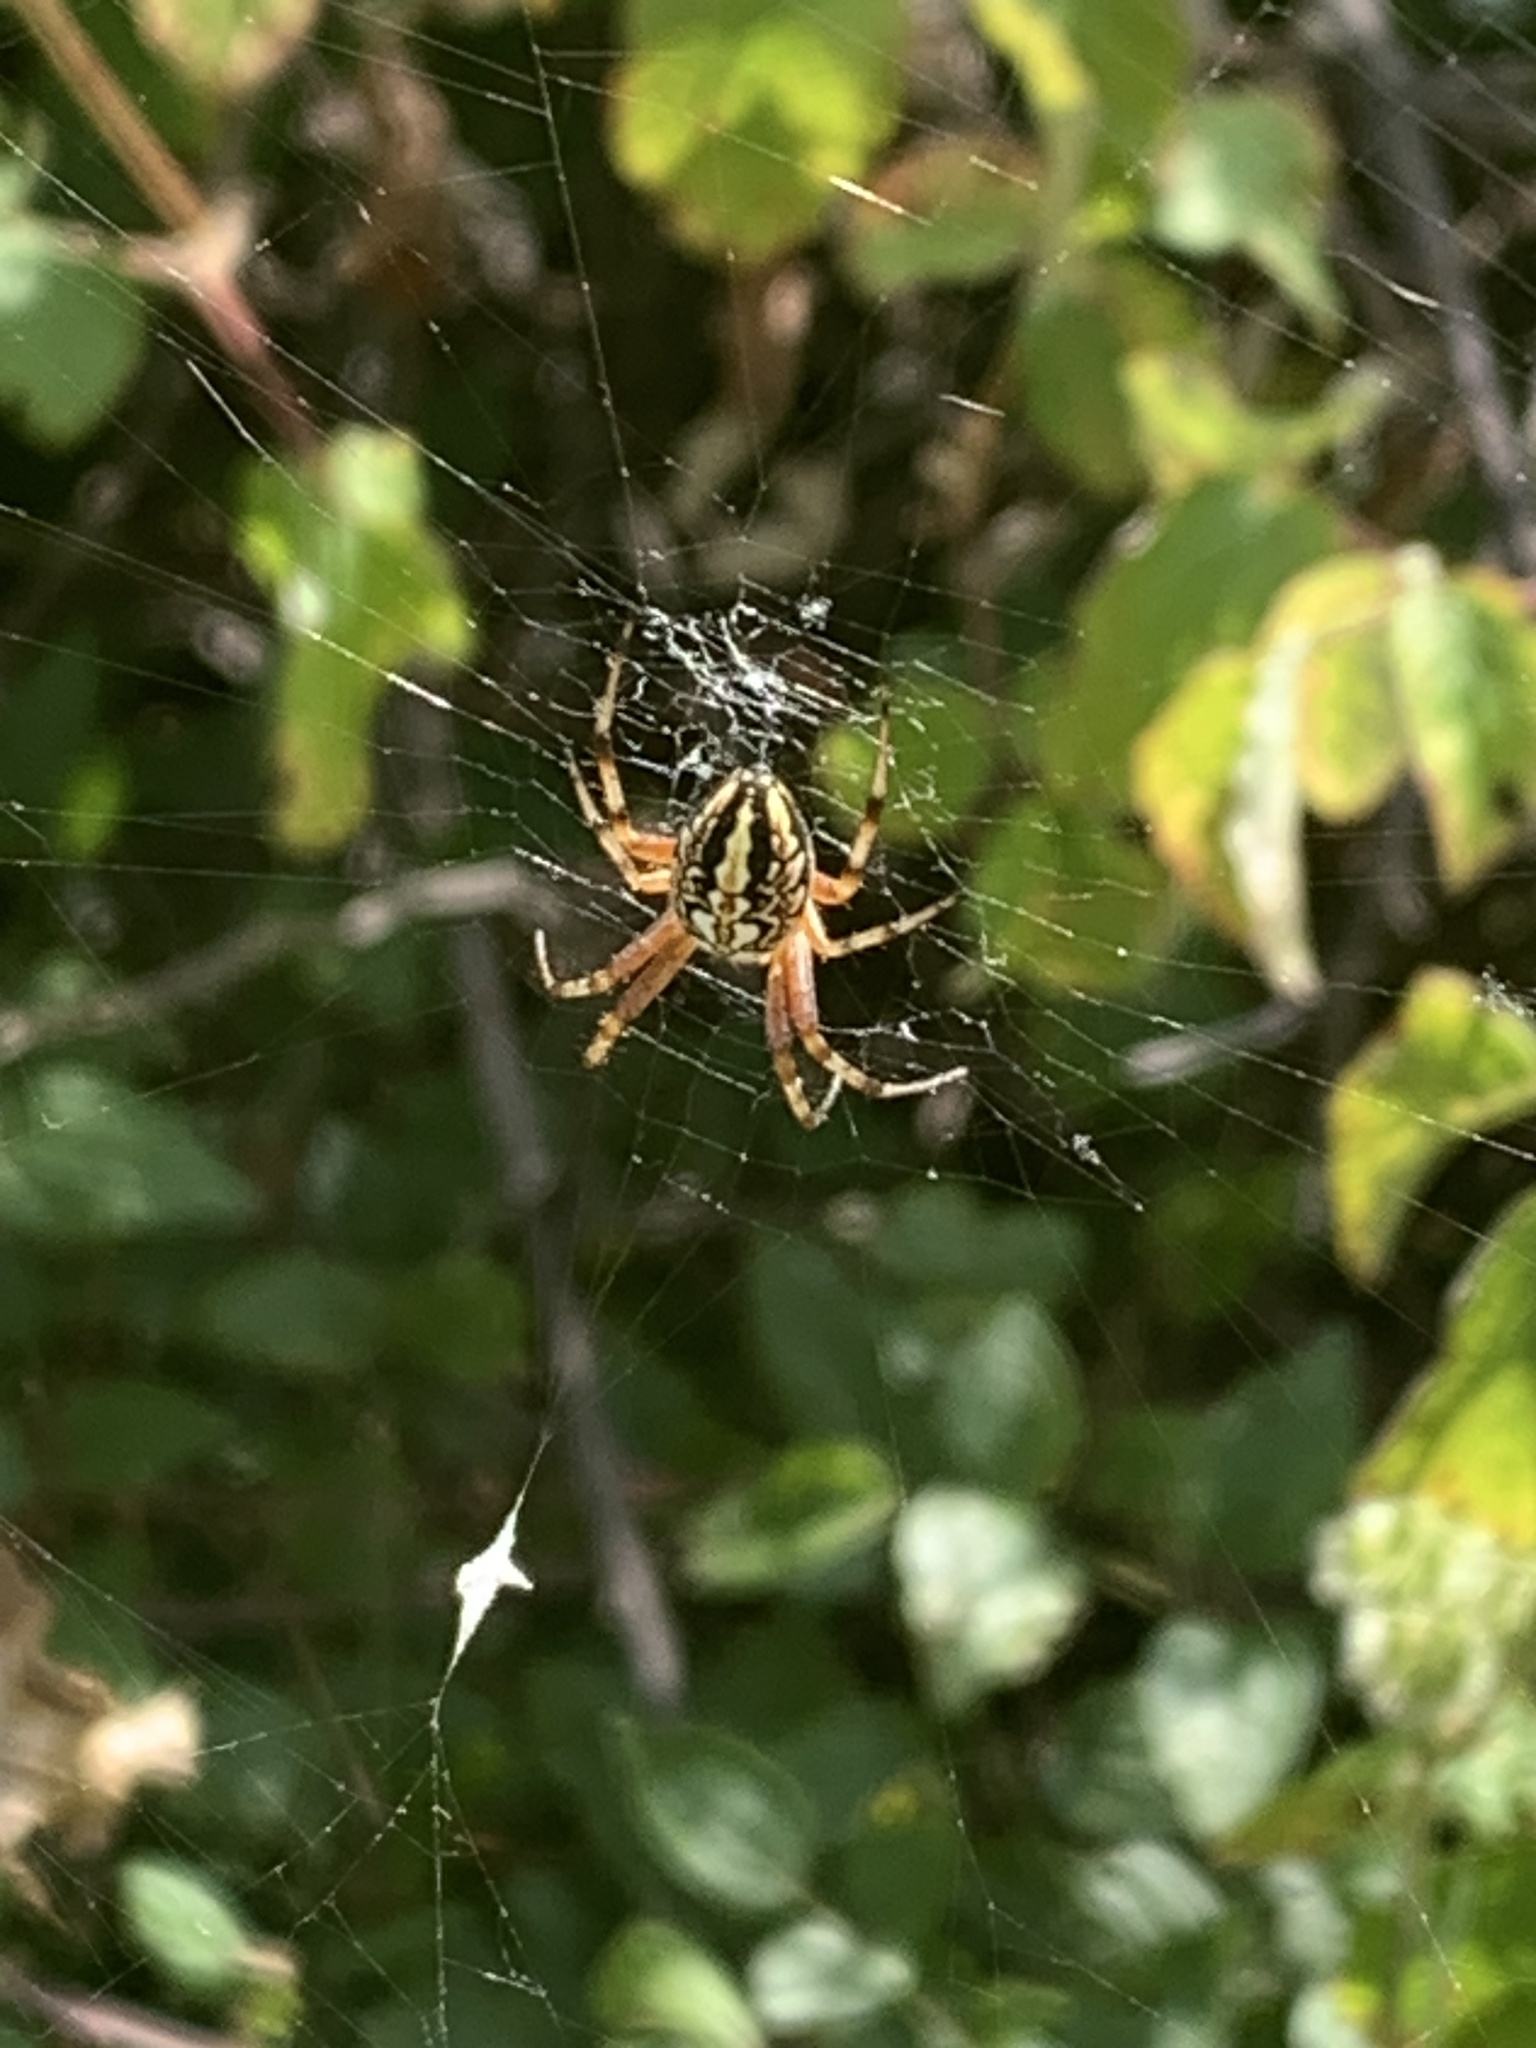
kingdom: Animalia
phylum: Arthropoda
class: Arachnida
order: Araneae
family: Araneidae
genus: Neoscona
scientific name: Neoscona adianta
